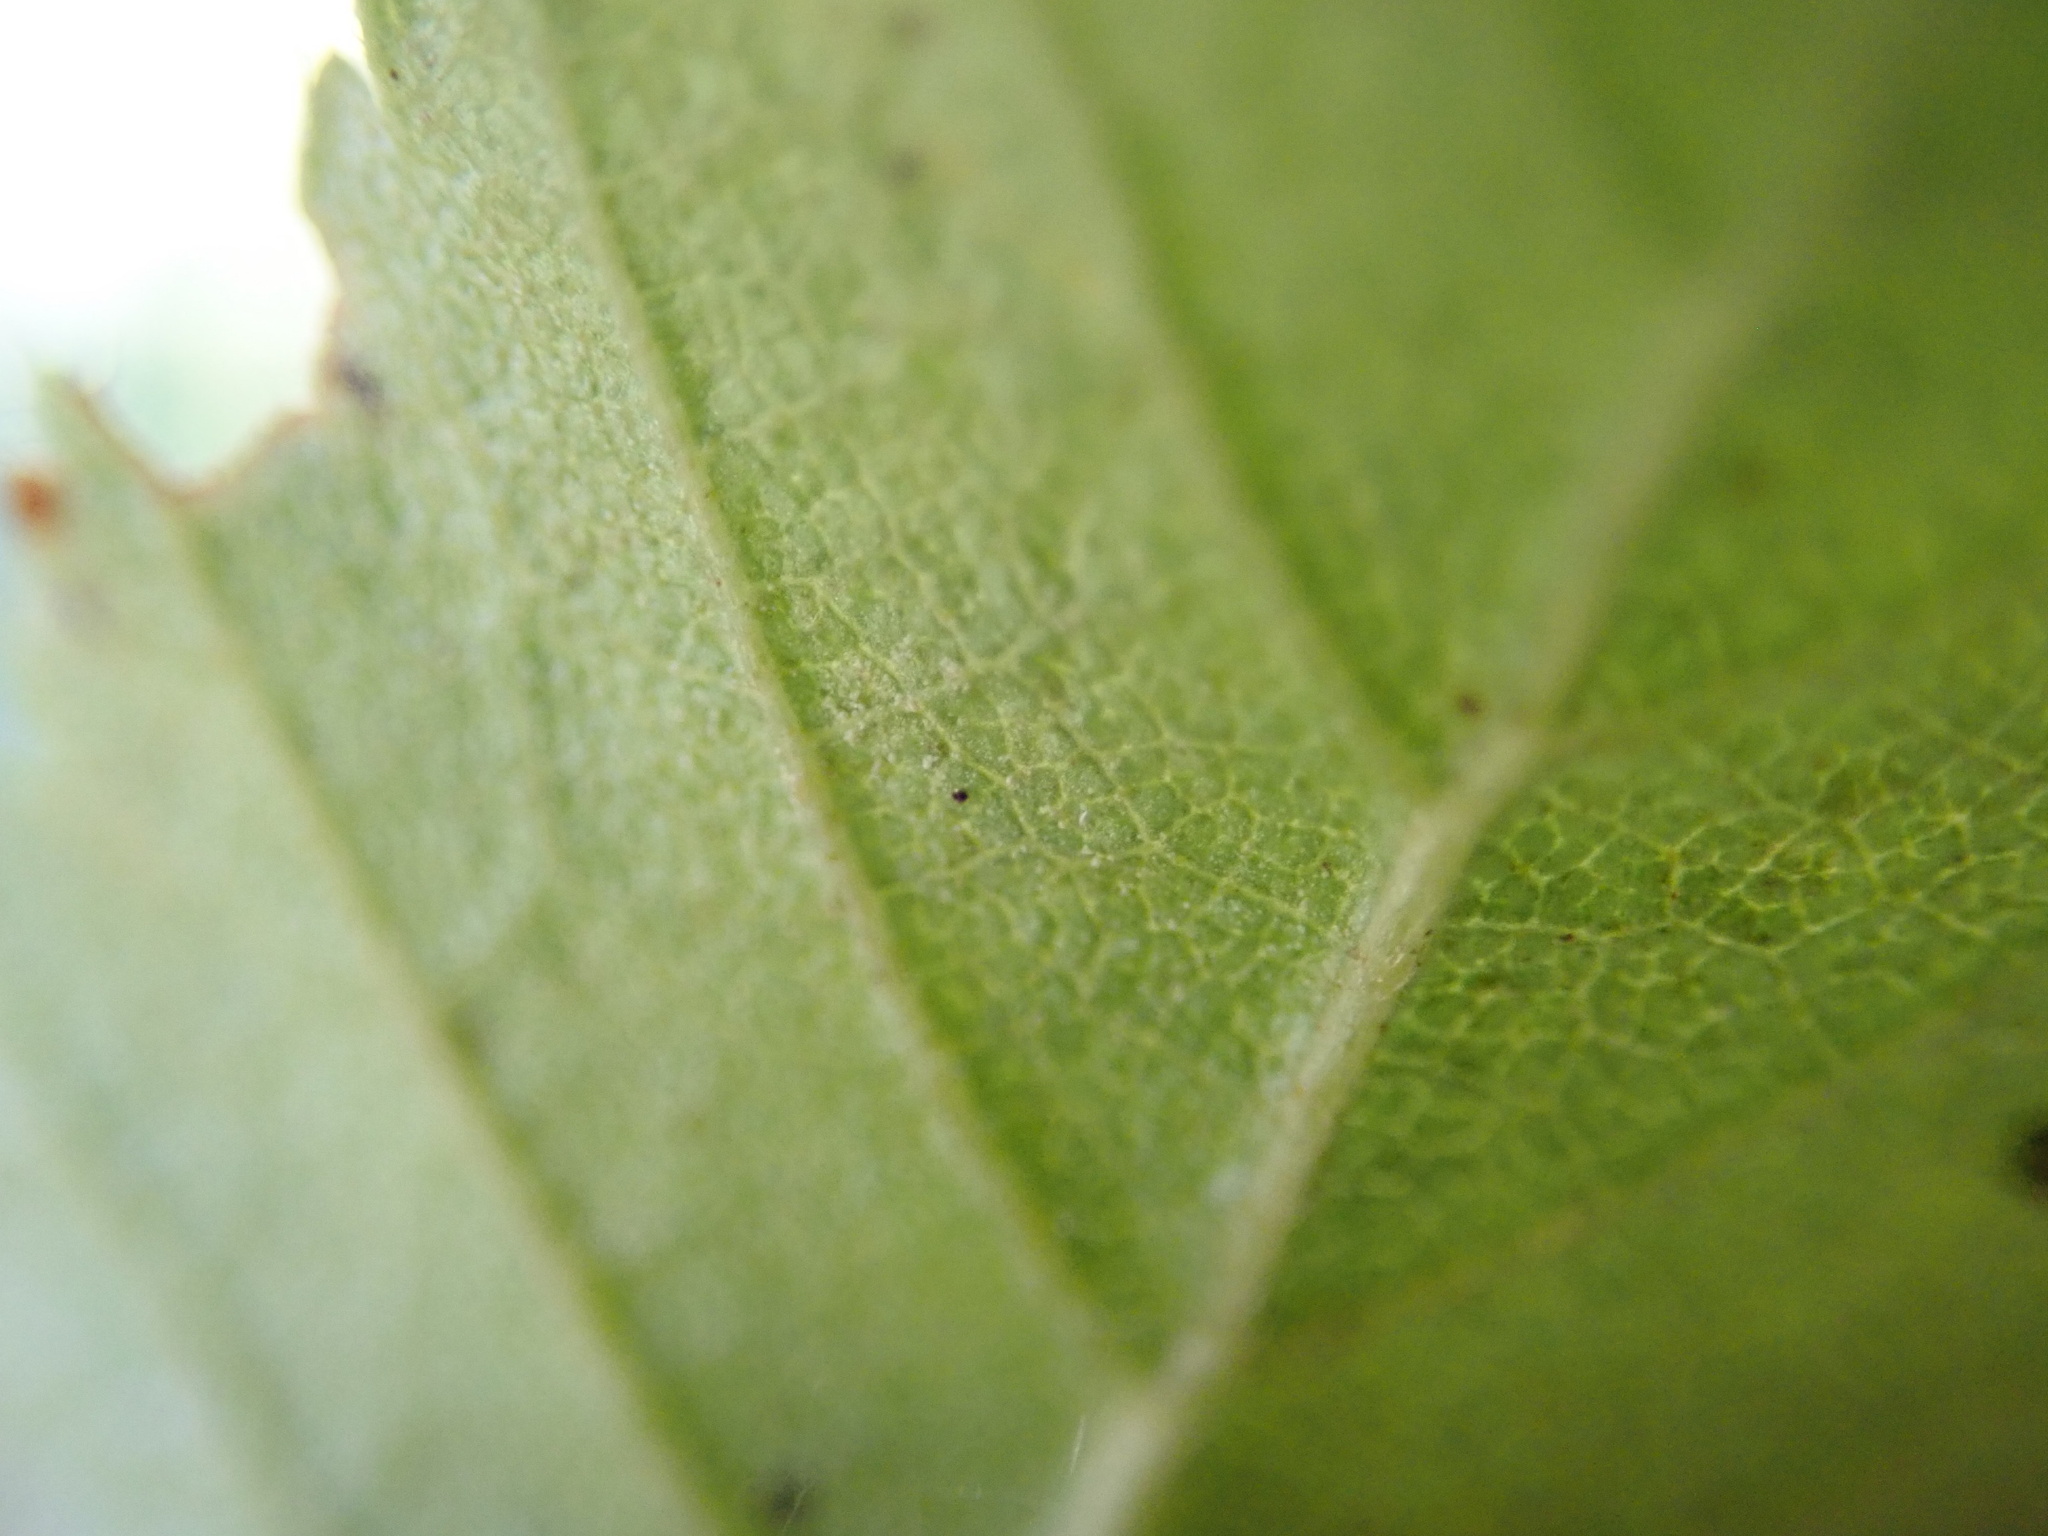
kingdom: Plantae
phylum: Tracheophyta
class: Magnoliopsida
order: Fagales
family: Betulaceae
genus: Betula
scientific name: Betula pubescens
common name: Downy birch
